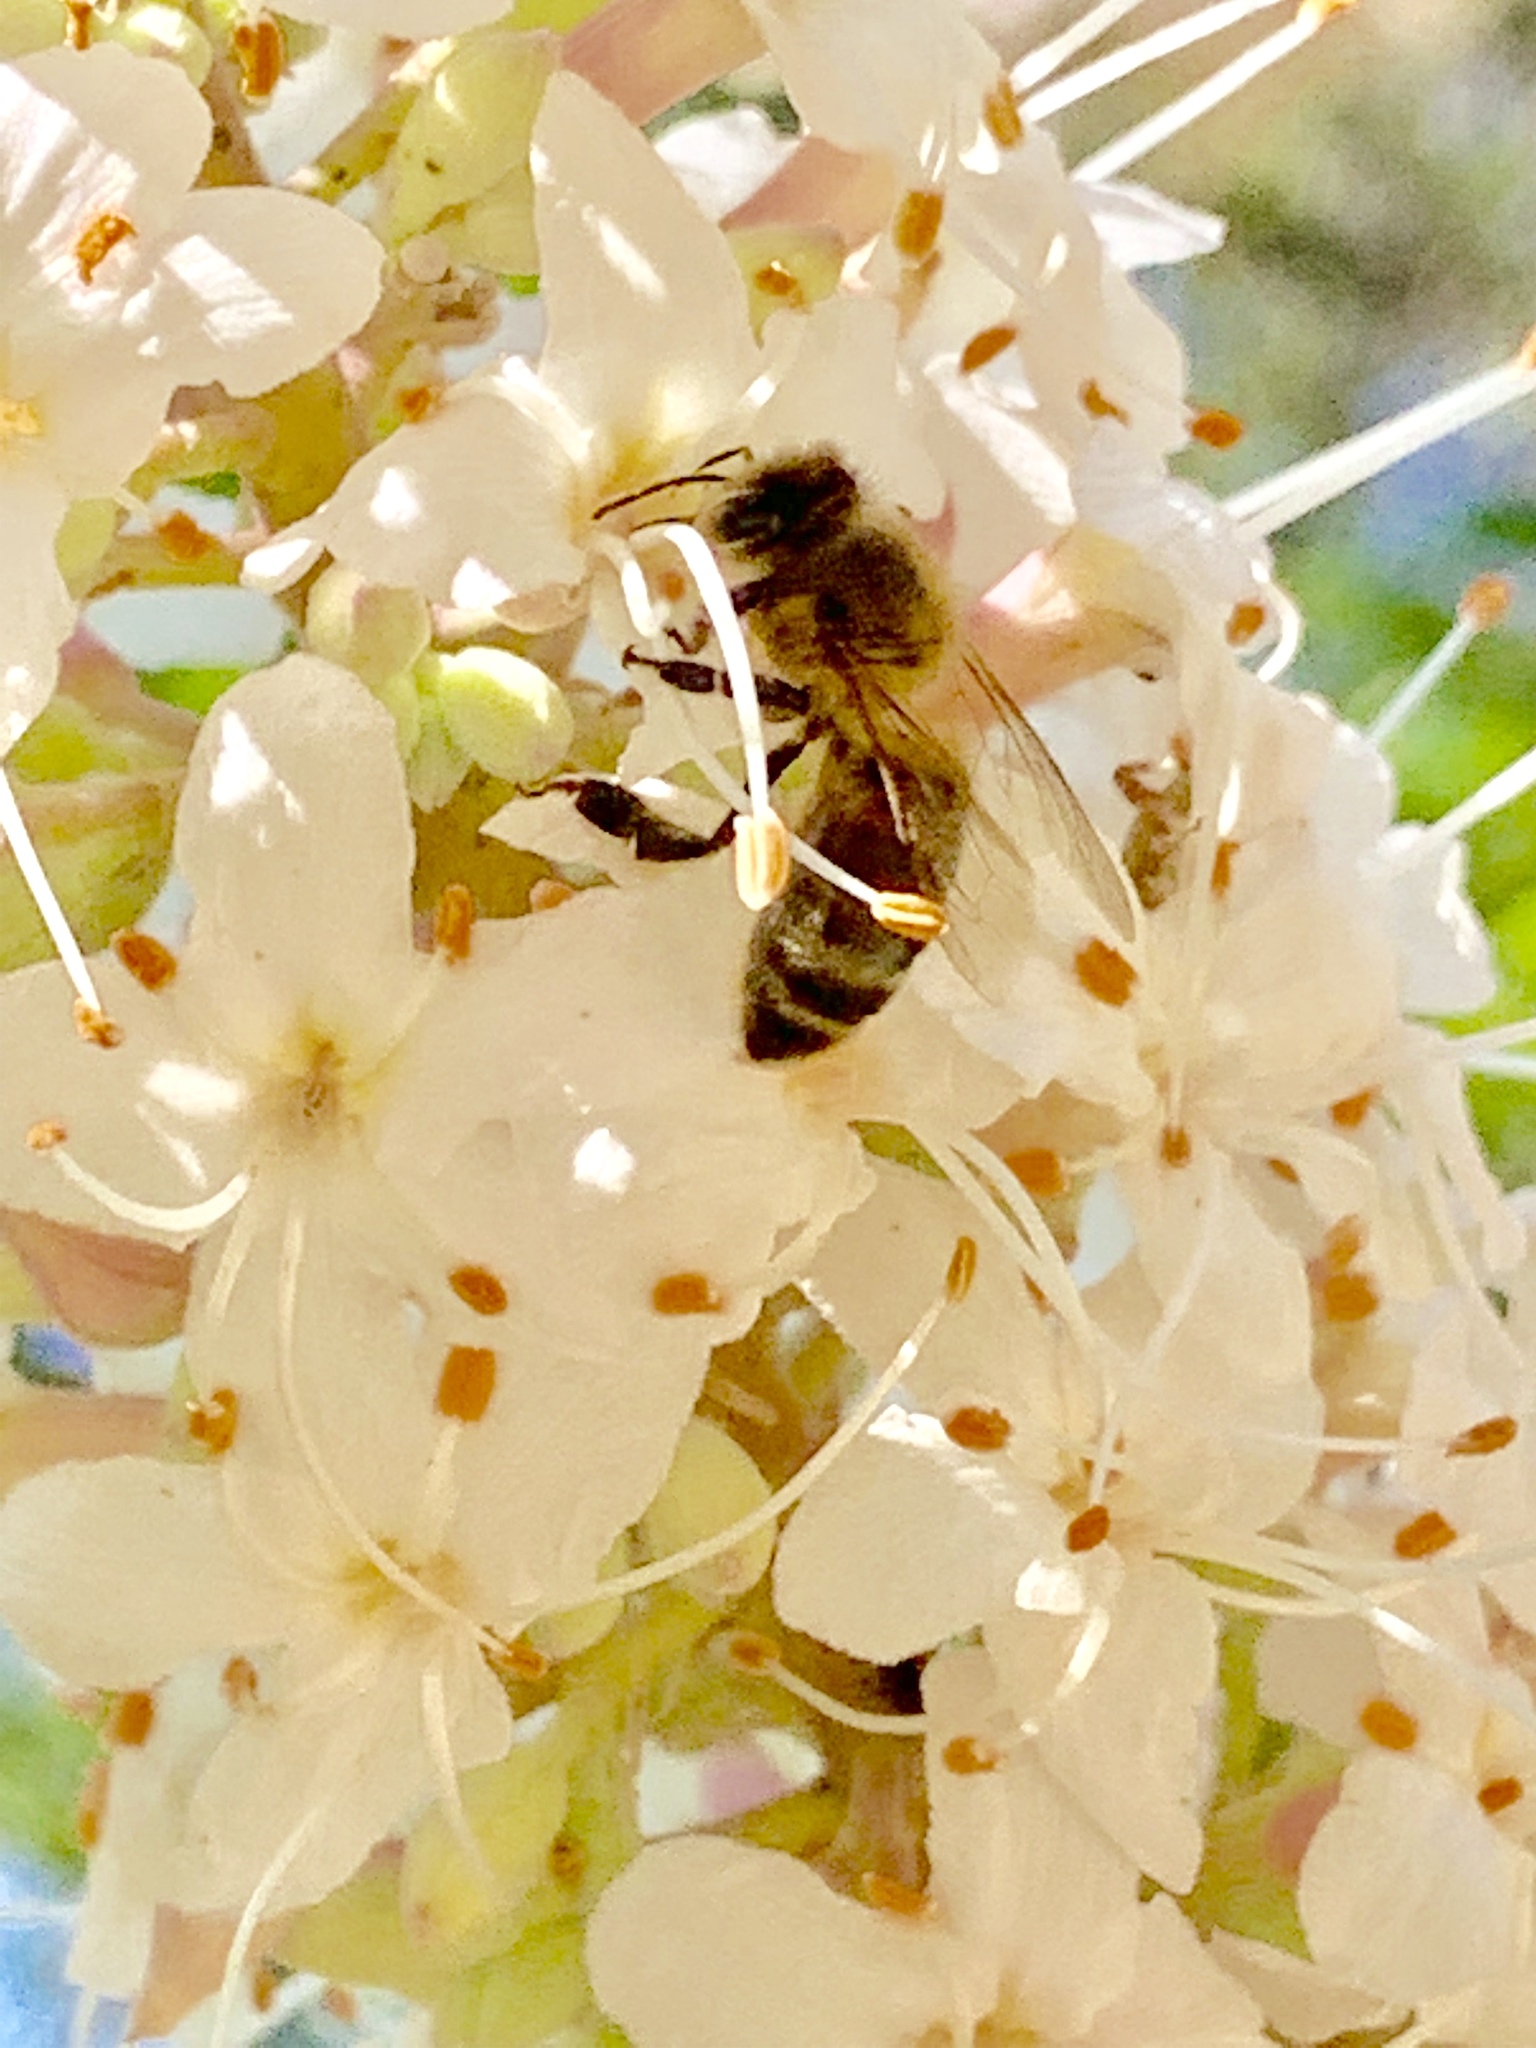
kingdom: Animalia
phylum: Arthropoda
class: Insecta
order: Hymenoptera
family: Apidae
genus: Apis
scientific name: Apis mellifera
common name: Honey bee
